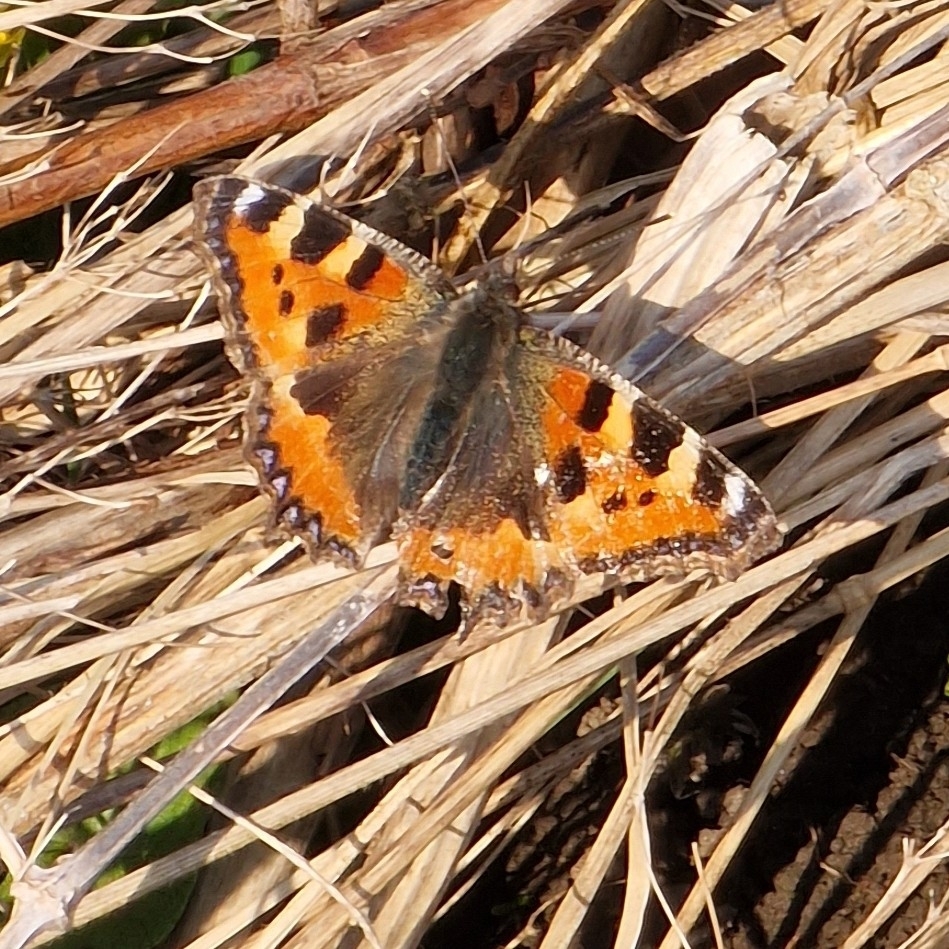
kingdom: Animalia
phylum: Arthropoda
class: Insecta
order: Lepidoptera
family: Nymphalidae
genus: Aglais
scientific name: Aglais urticae
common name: Small tortoiseshell
